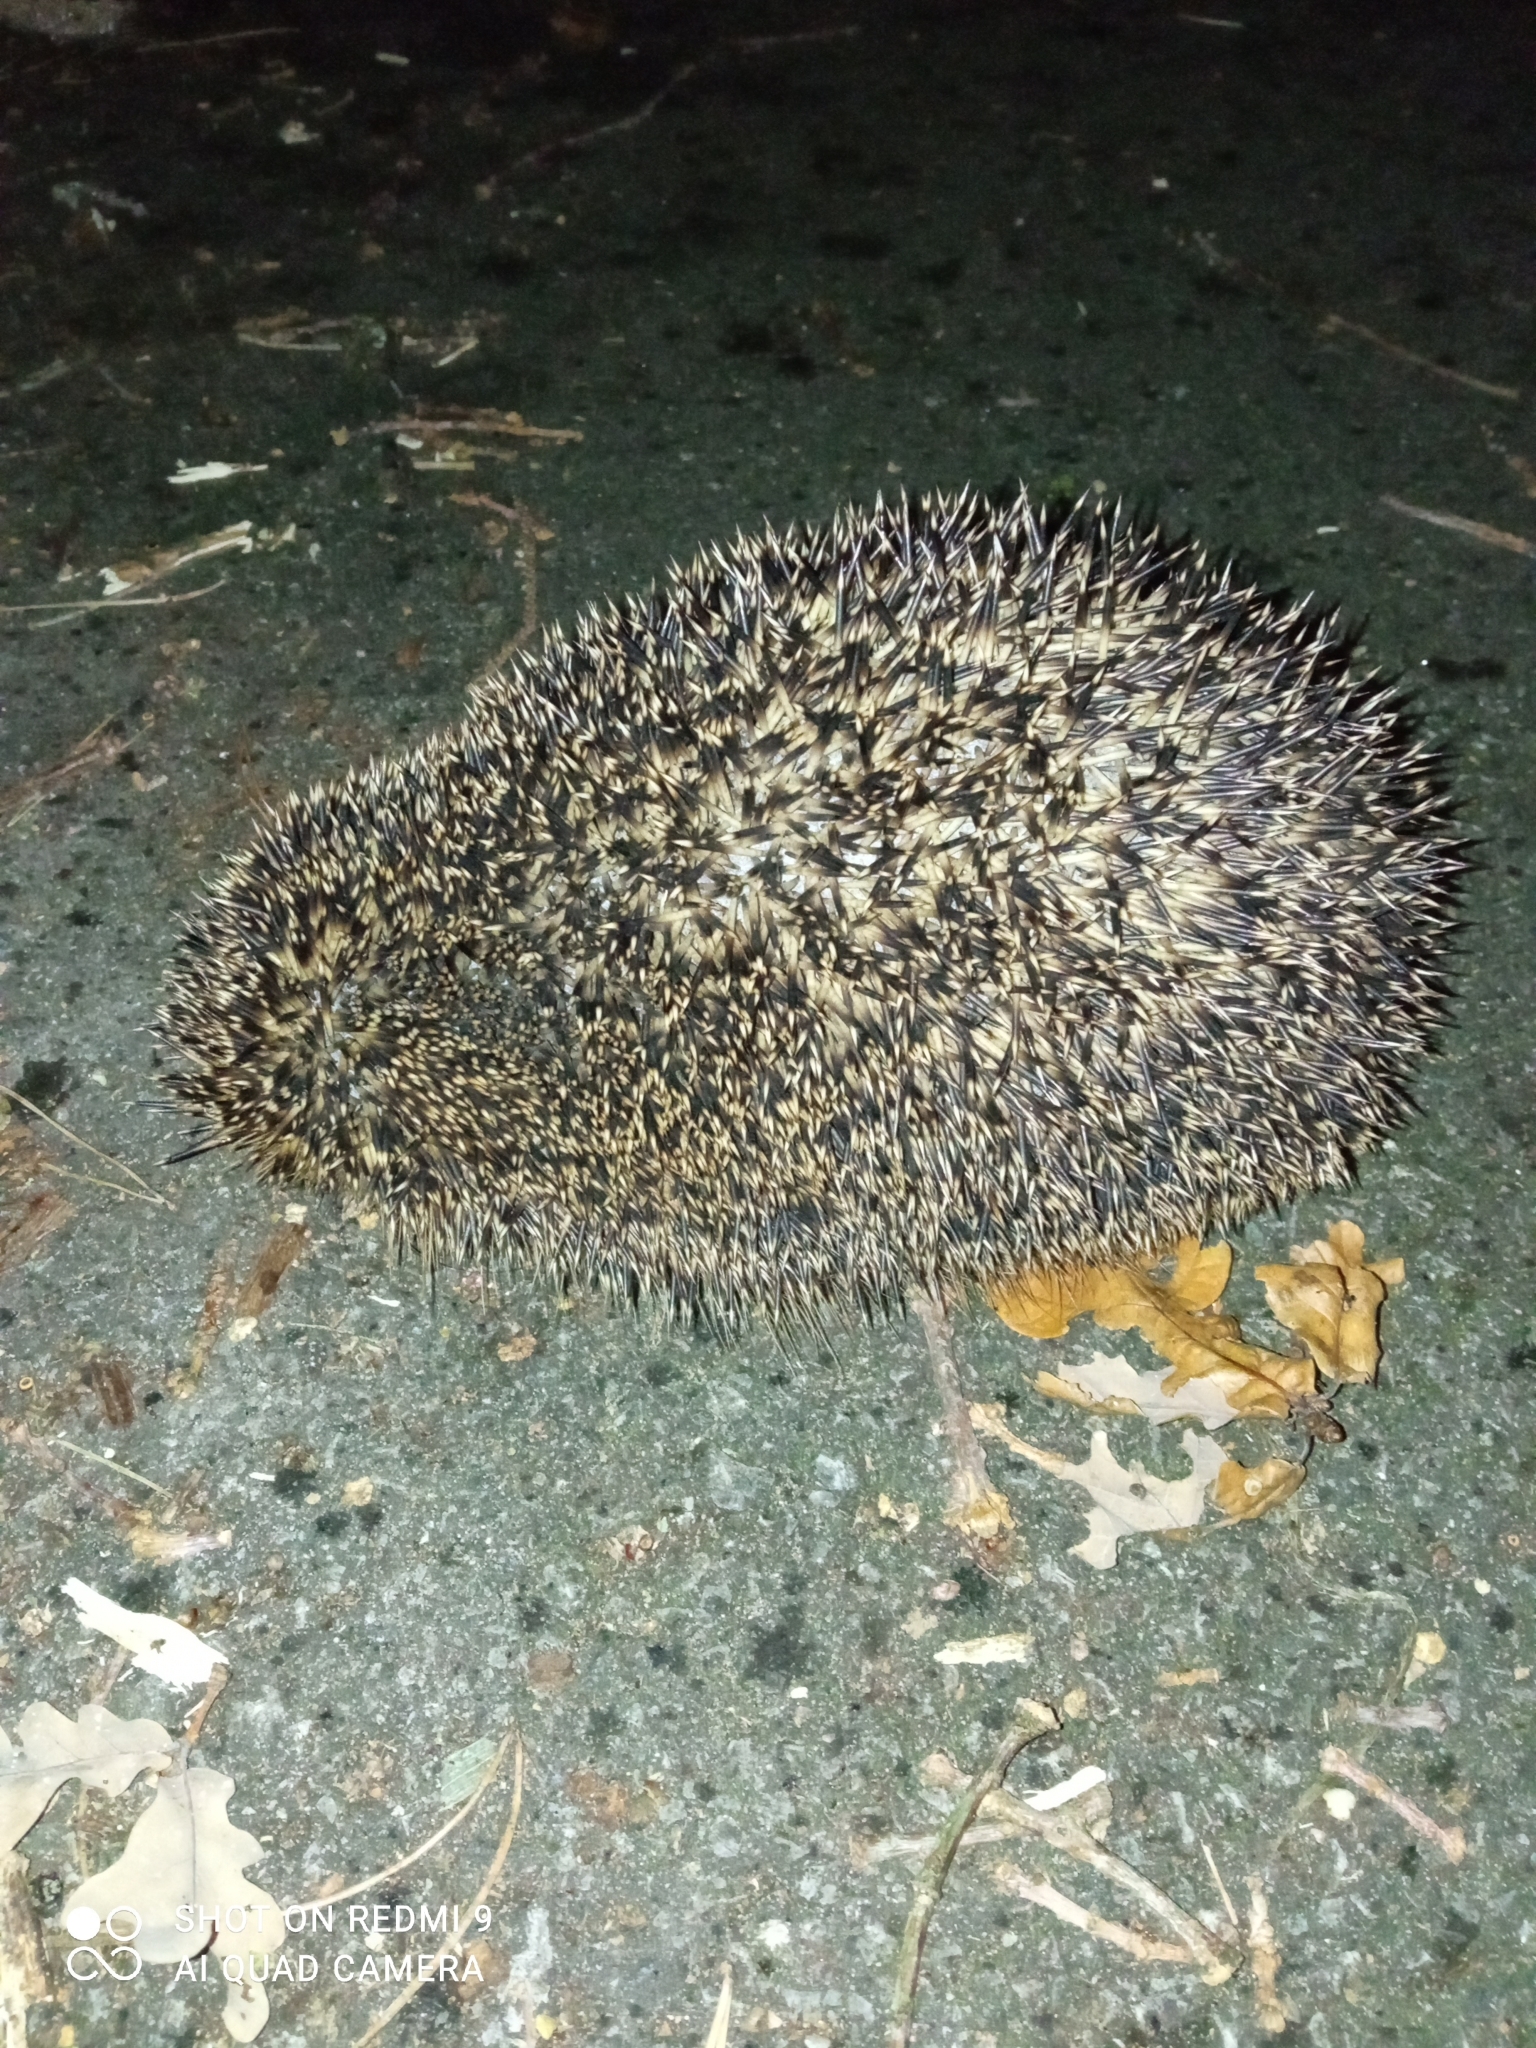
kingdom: Animalia
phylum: Chordata
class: Mammalia
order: Erinaceomorpha
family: Erinaceidae
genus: Erinaceus
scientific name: Erinaceus europaeus
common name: West european hedgehog
